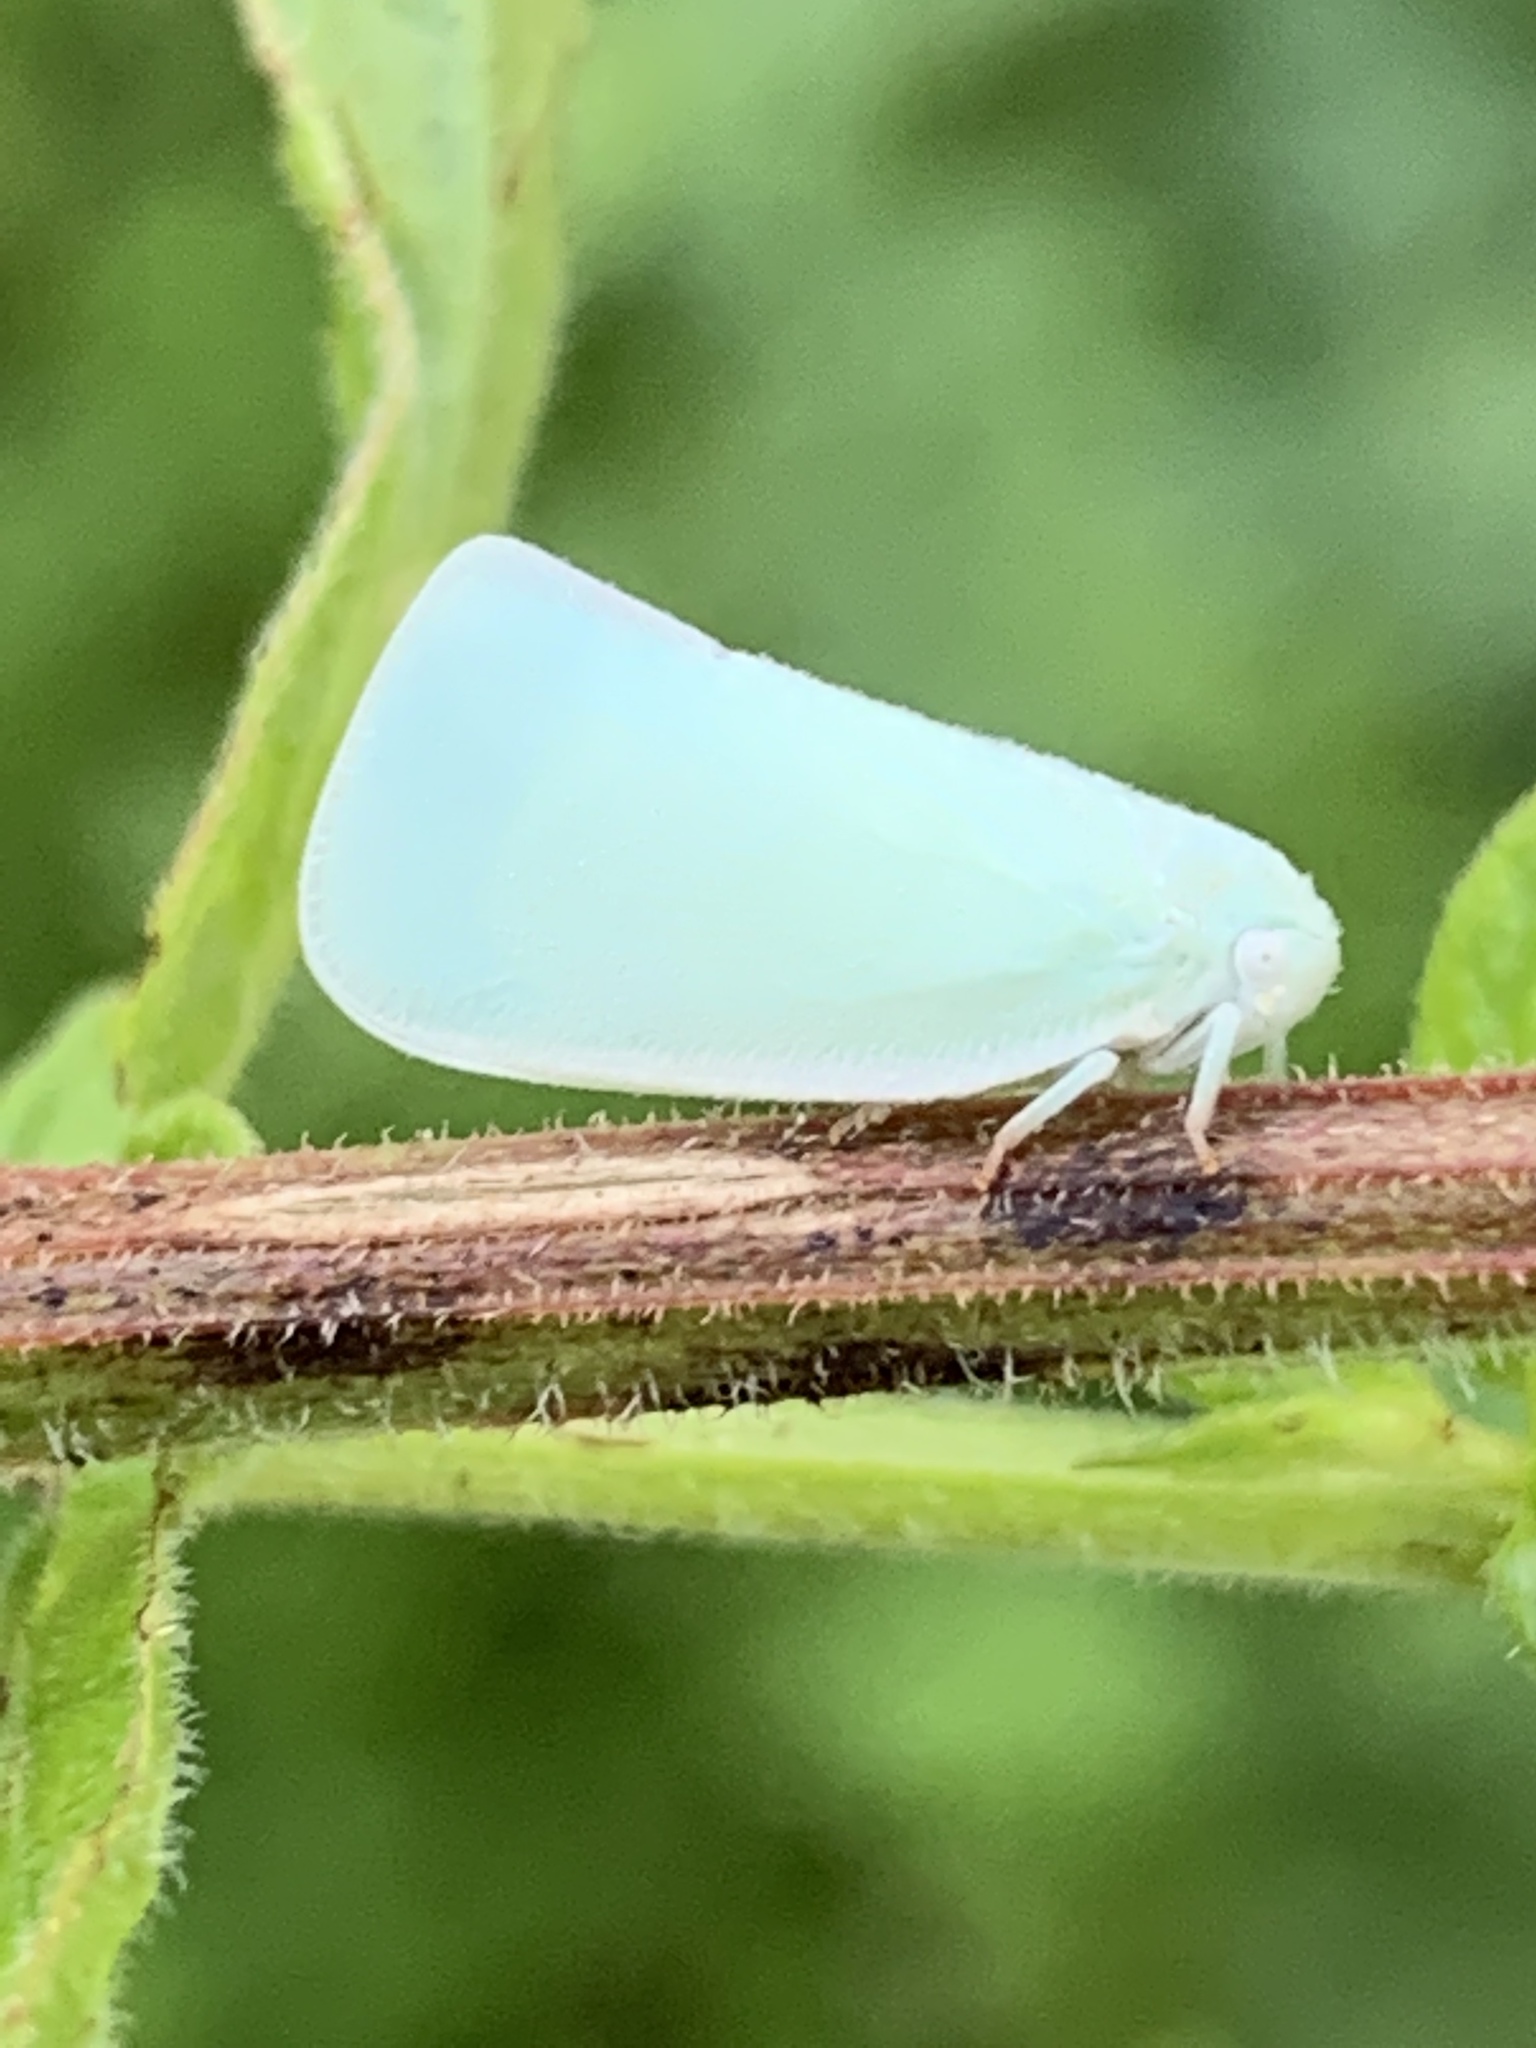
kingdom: Animalia
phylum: Arthropoda
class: Insecta
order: Hemiptera
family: Flatidae
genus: Flatormenis
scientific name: Flatormenis proxima
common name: Northern flatid planthopper
